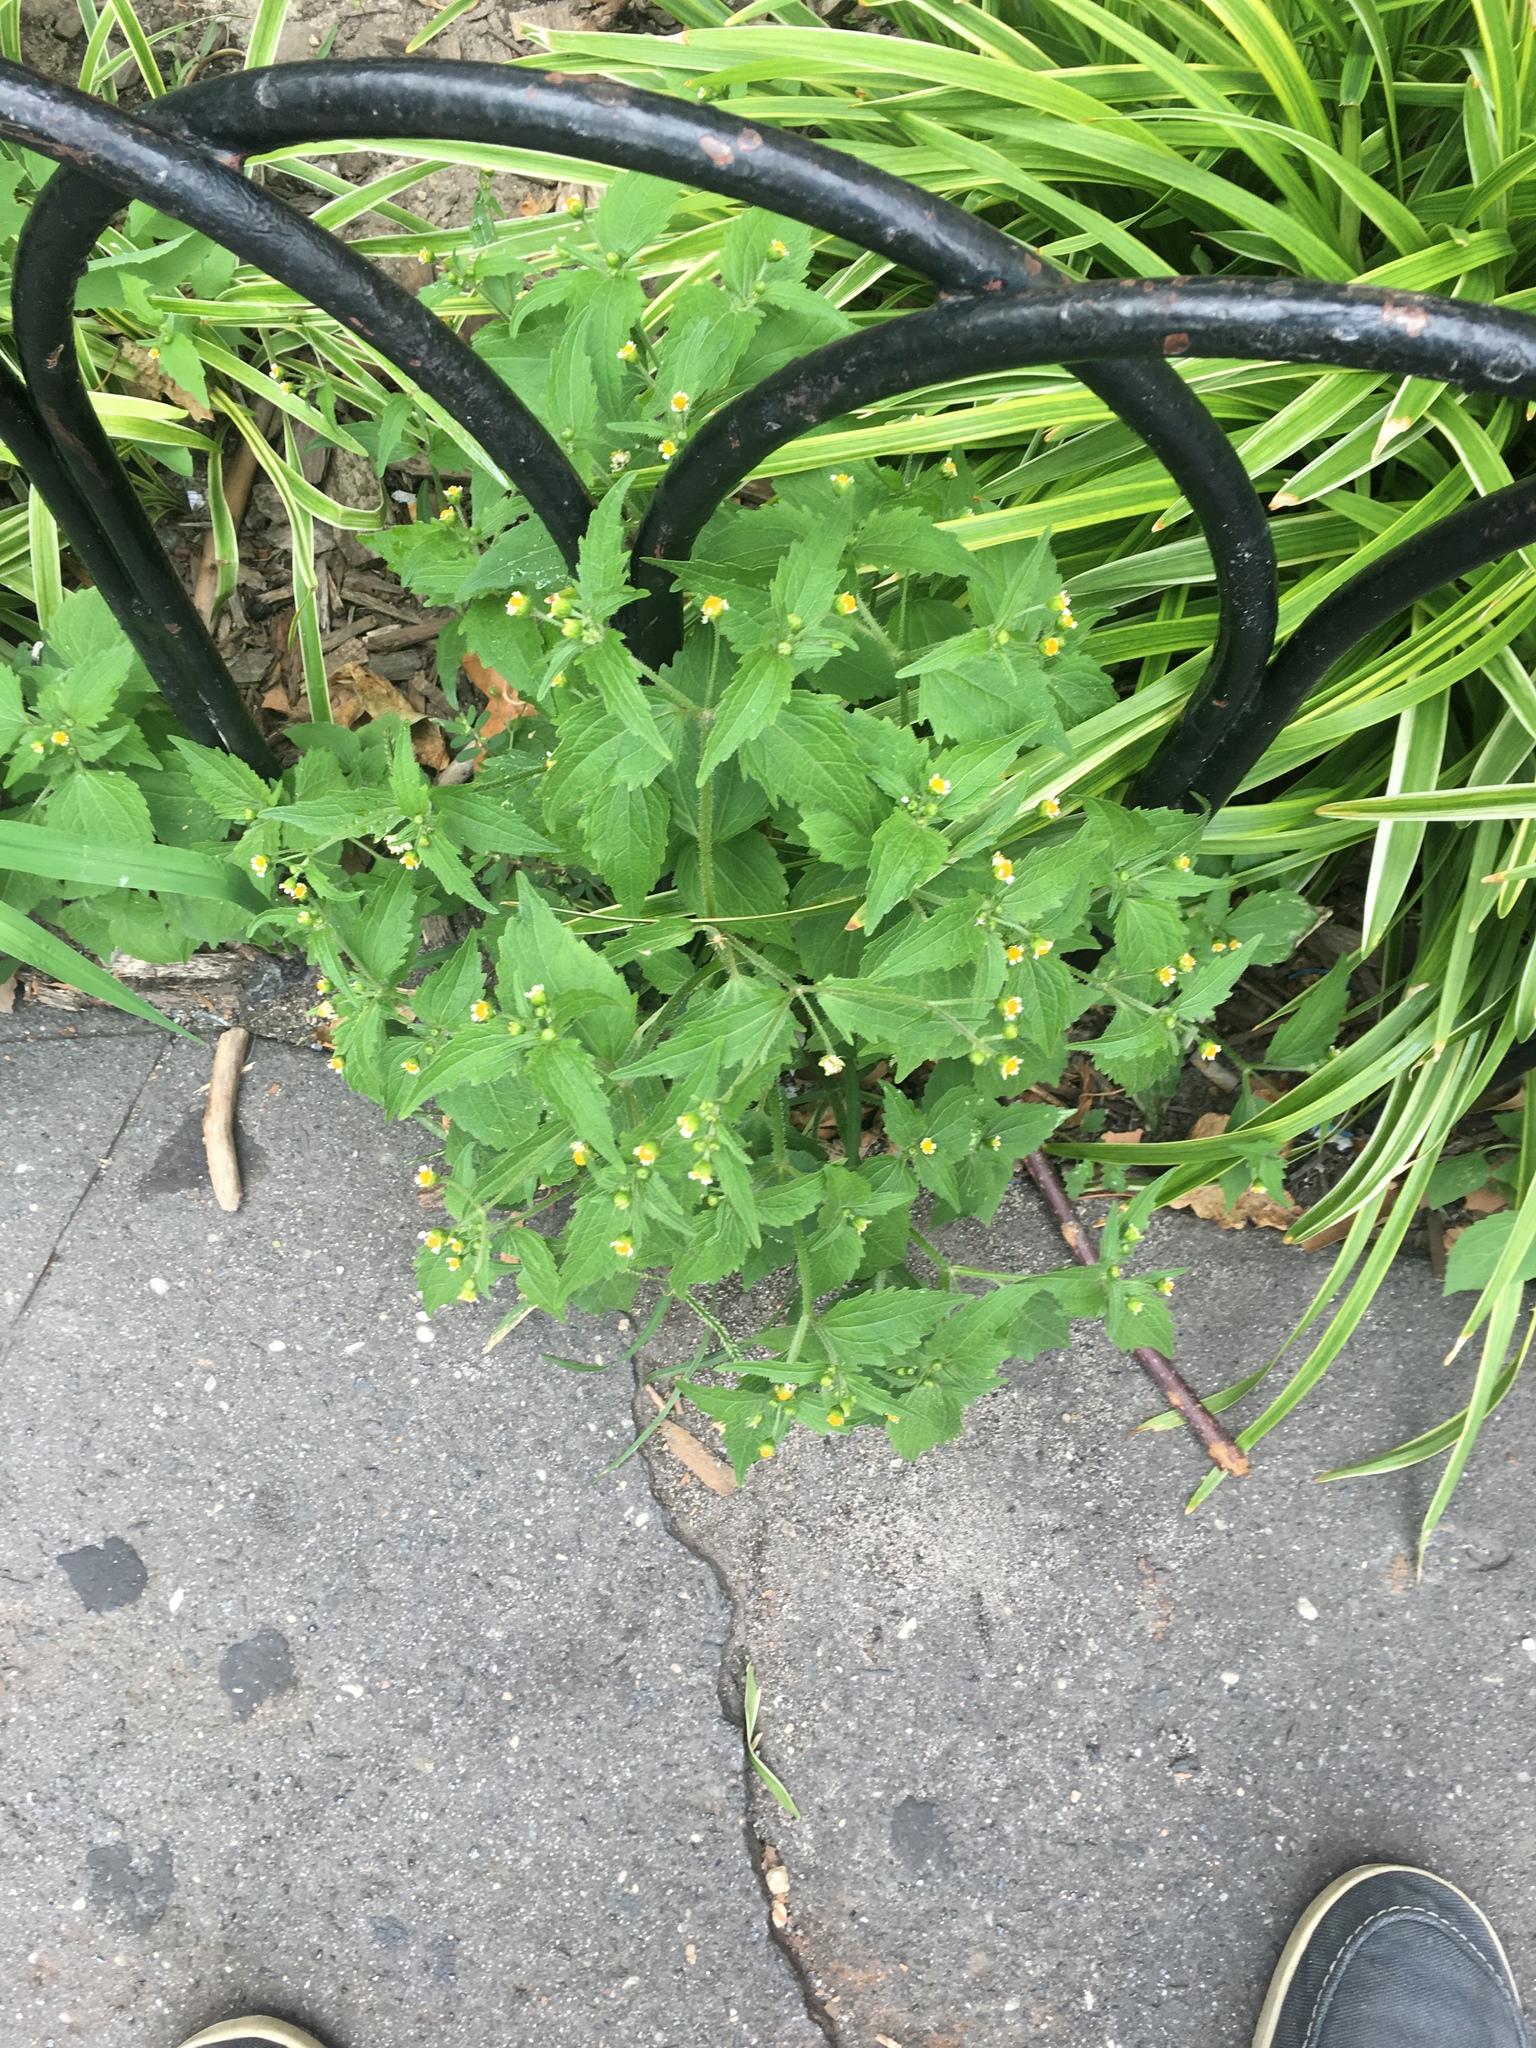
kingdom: Plantae
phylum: Tracheophyta
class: Magnoliopsida
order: Asterales
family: Asteraceae
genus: Galinsoga
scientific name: Galinsoga quadriradiata
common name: Shaggy soldier
